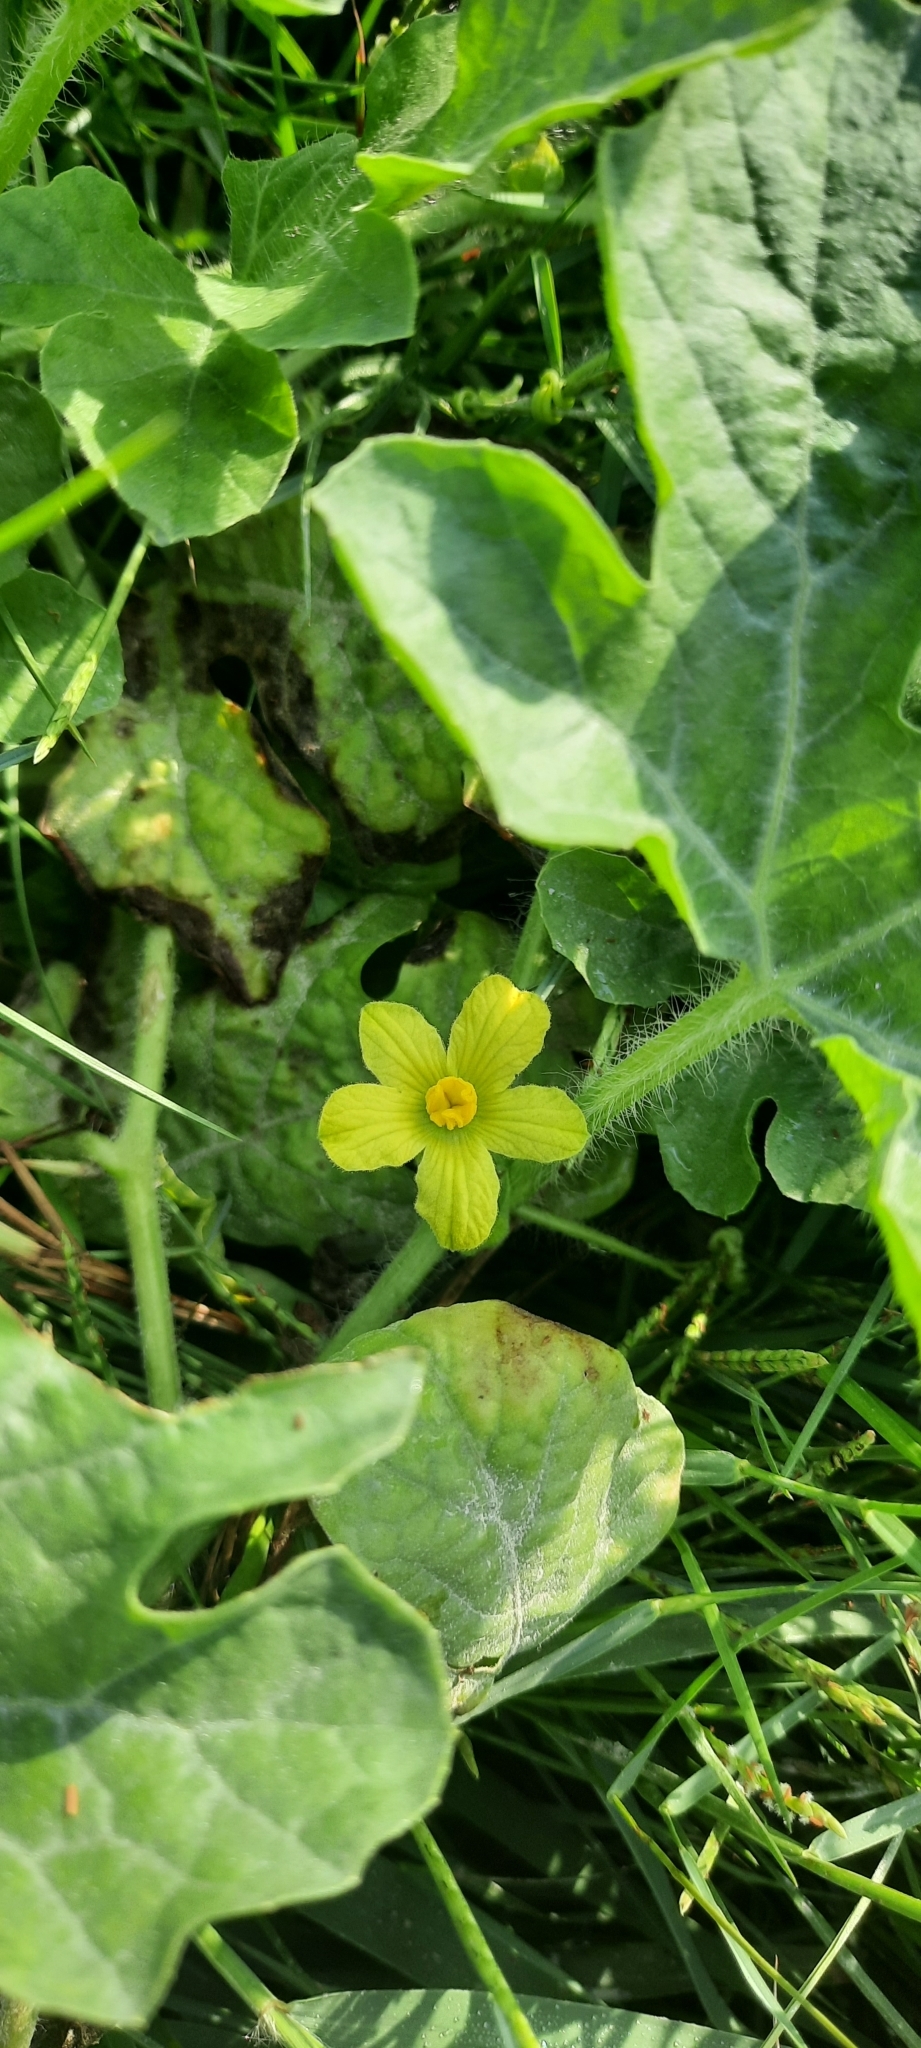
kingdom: Plantae
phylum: Tracheophyta
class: Magnoliopsida
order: Cucurbitales
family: Cucurbitaceae
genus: Citrullus
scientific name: Citrullus lanatus
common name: Watermelon
